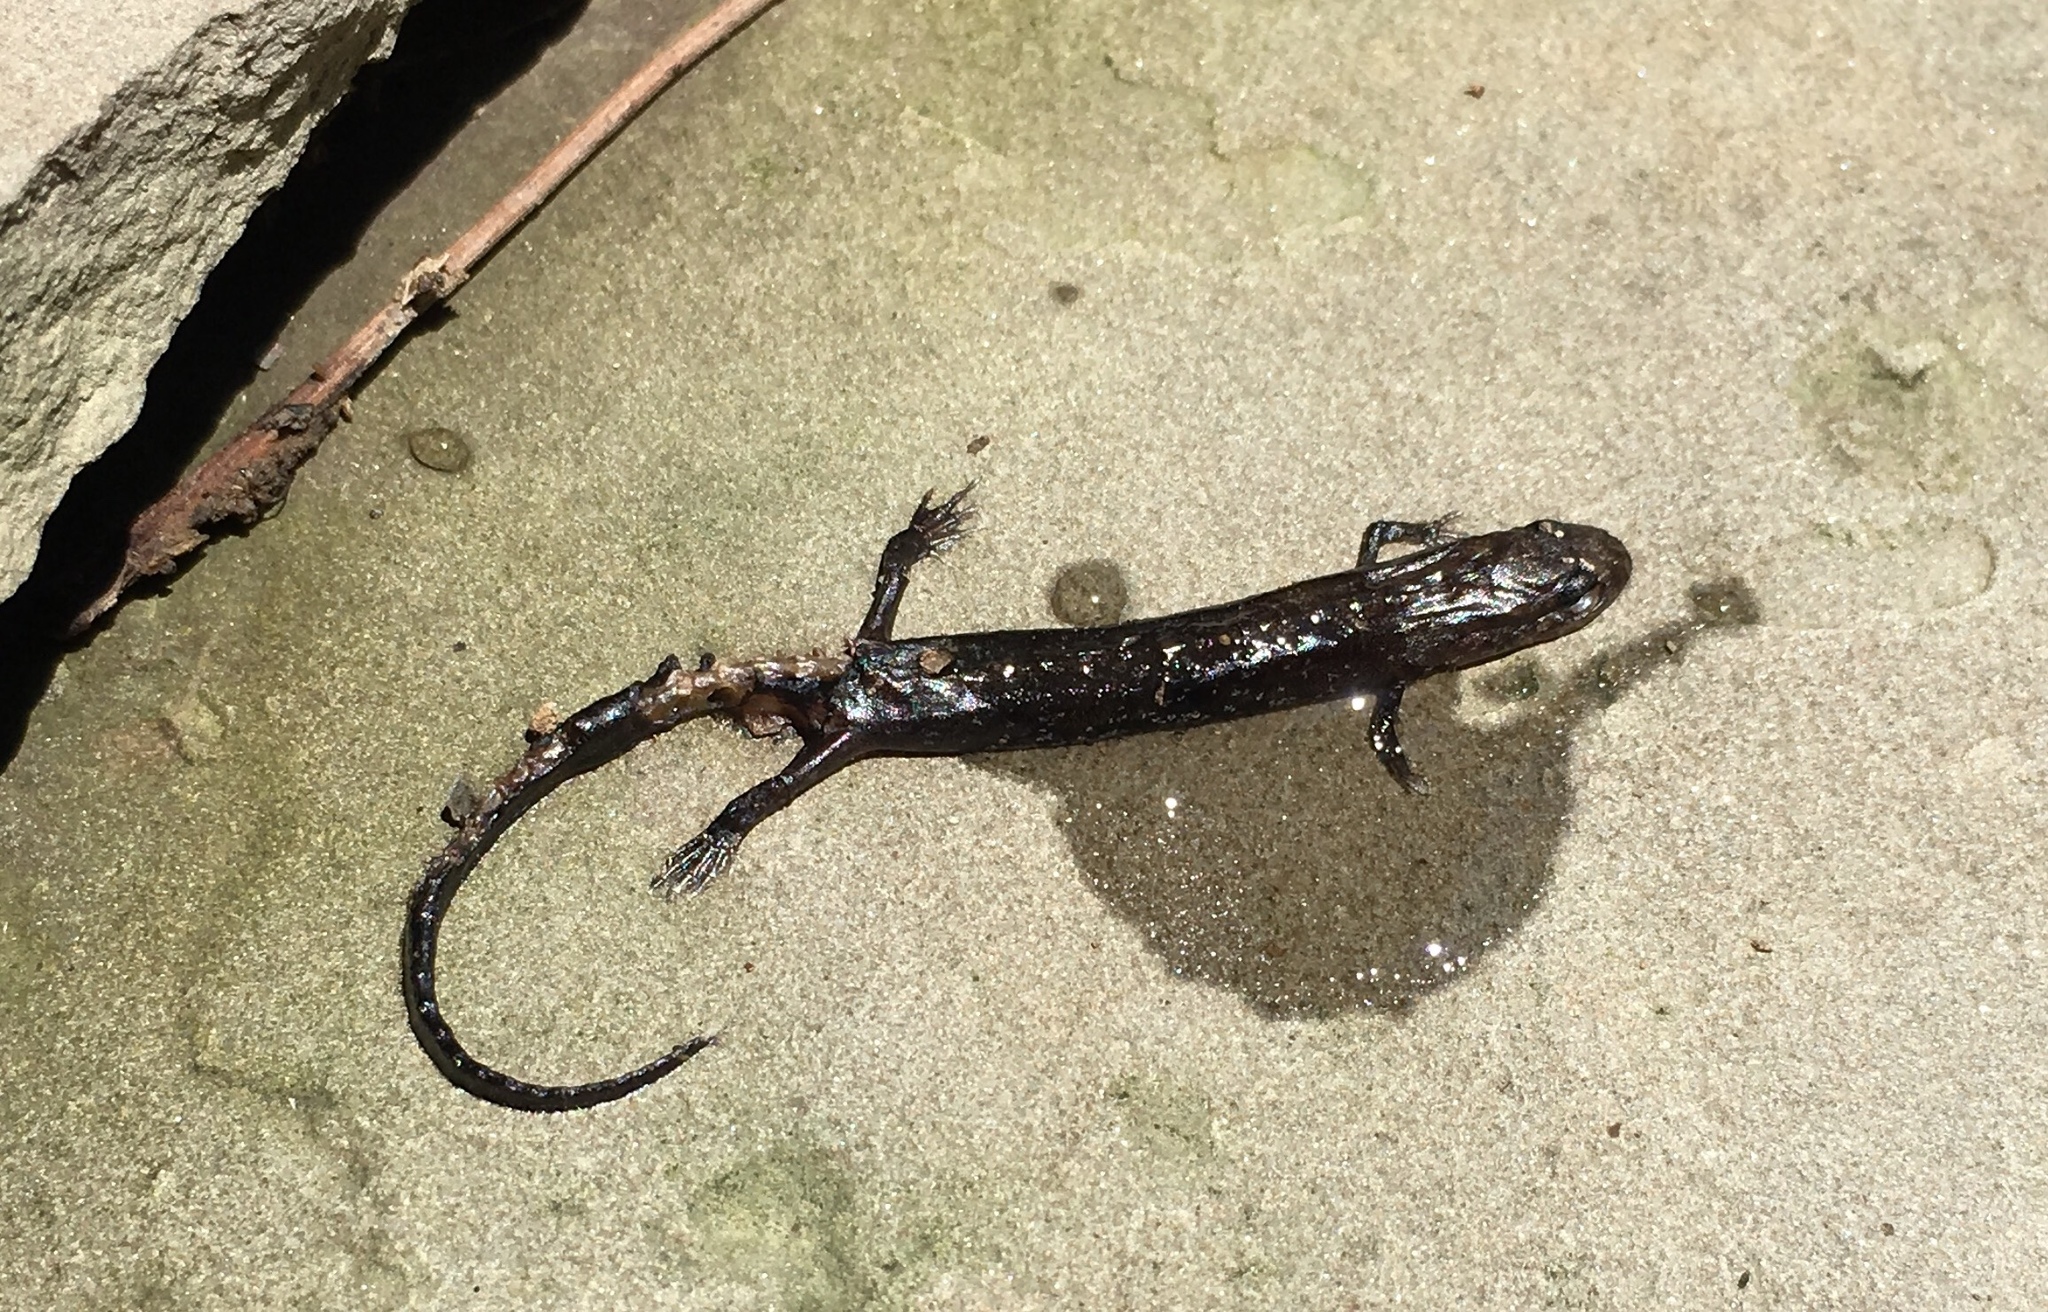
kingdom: Animalia
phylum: Chordata
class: Amphibia
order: Caudata
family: Plethodontidae
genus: Desmognathus
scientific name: Desmognathus
